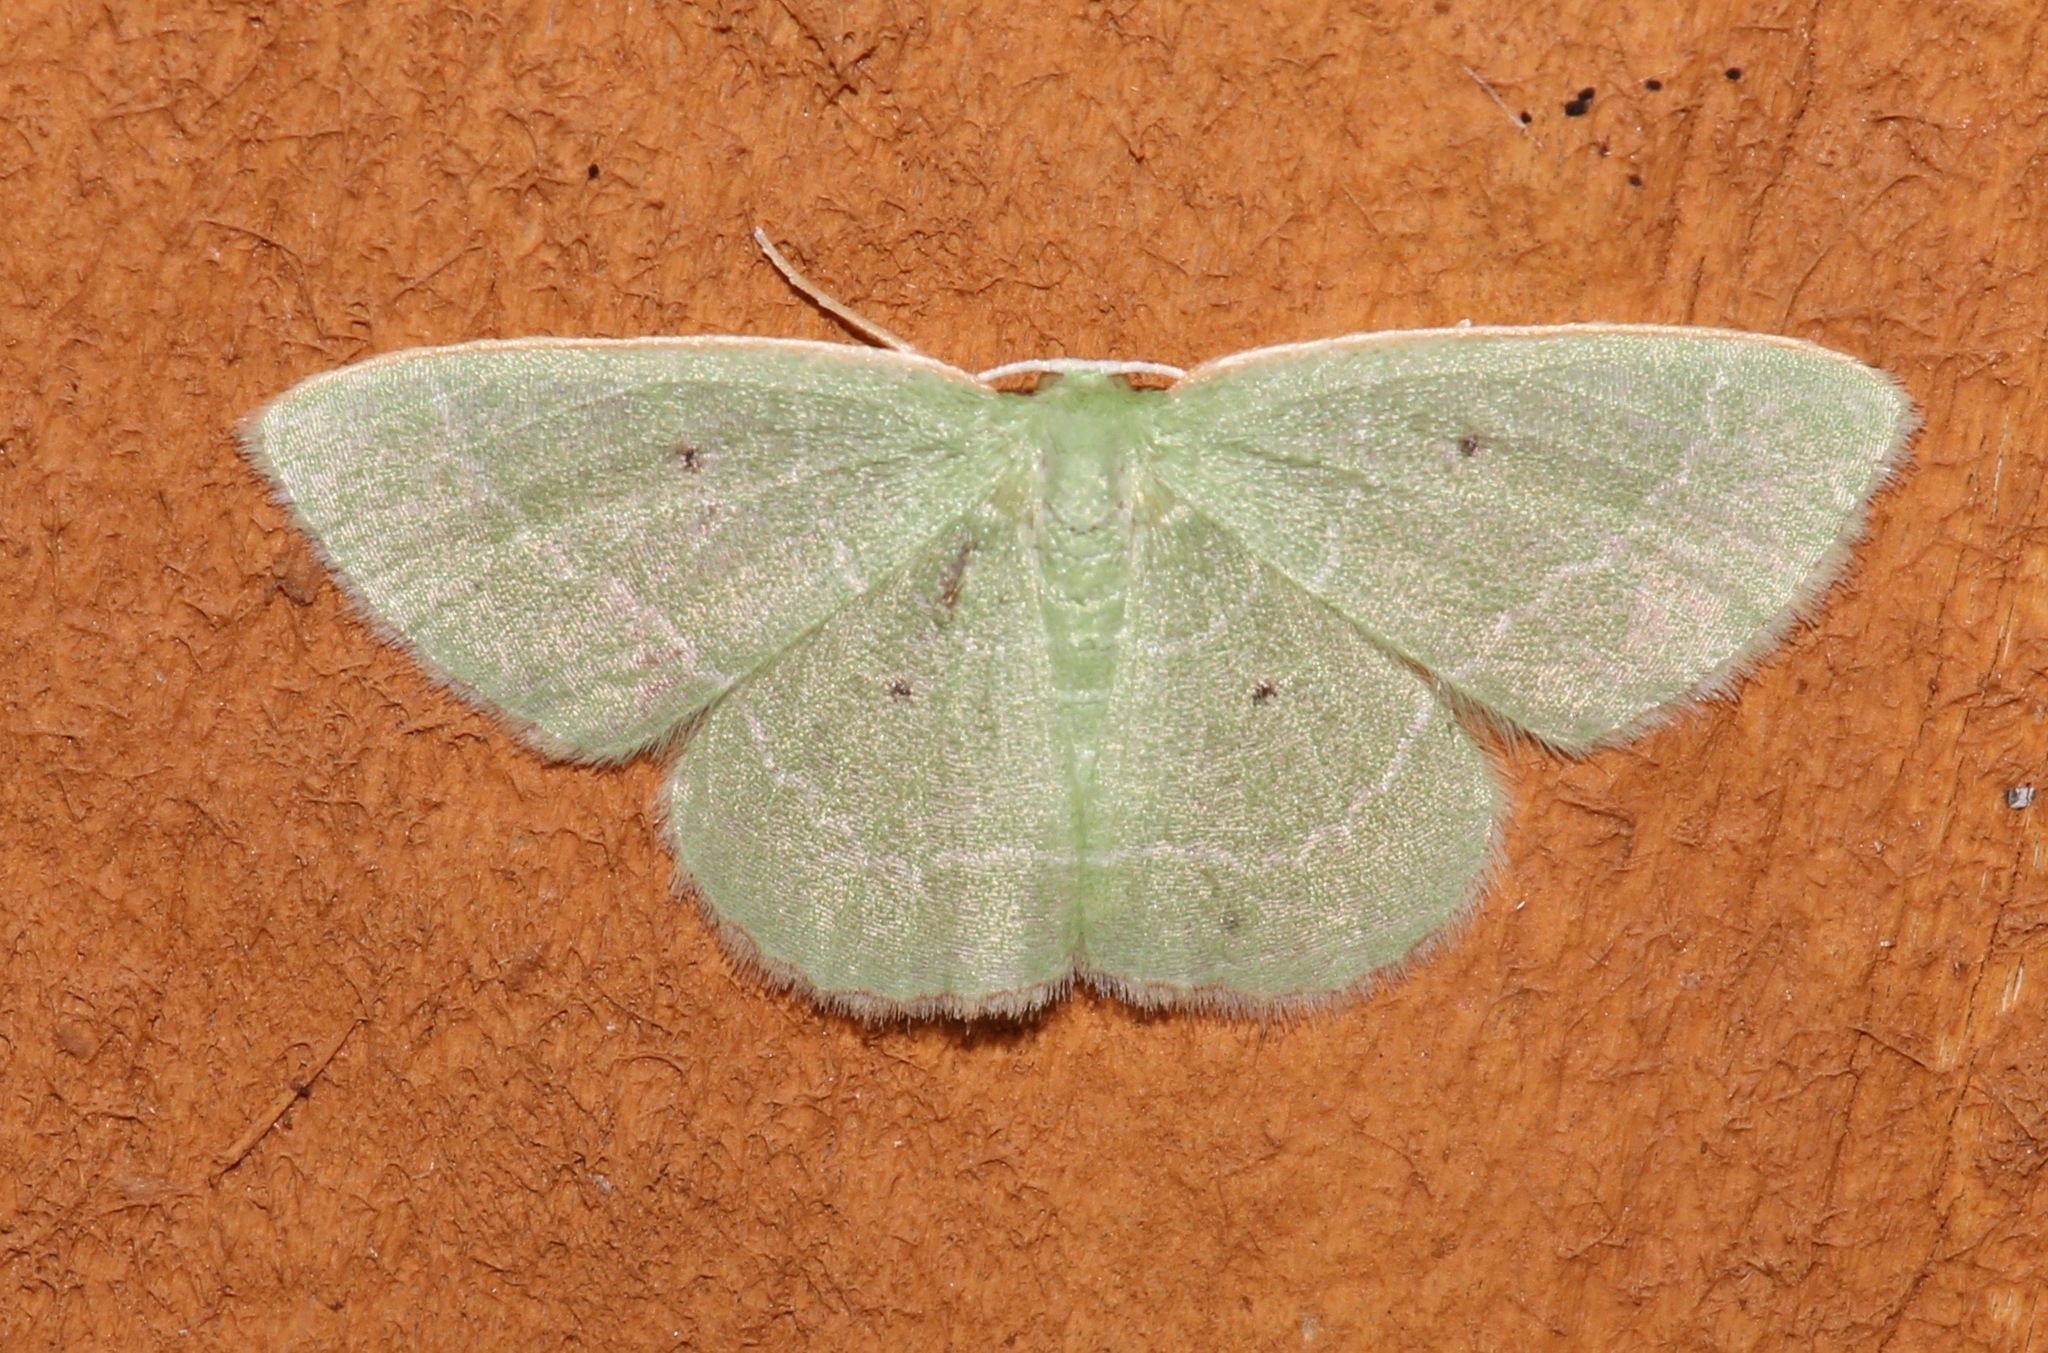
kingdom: Animalia
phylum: Arthropoda
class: Insecta
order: Lepidoptera
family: Geometridae
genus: Nemoria
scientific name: Nemoria elfa
